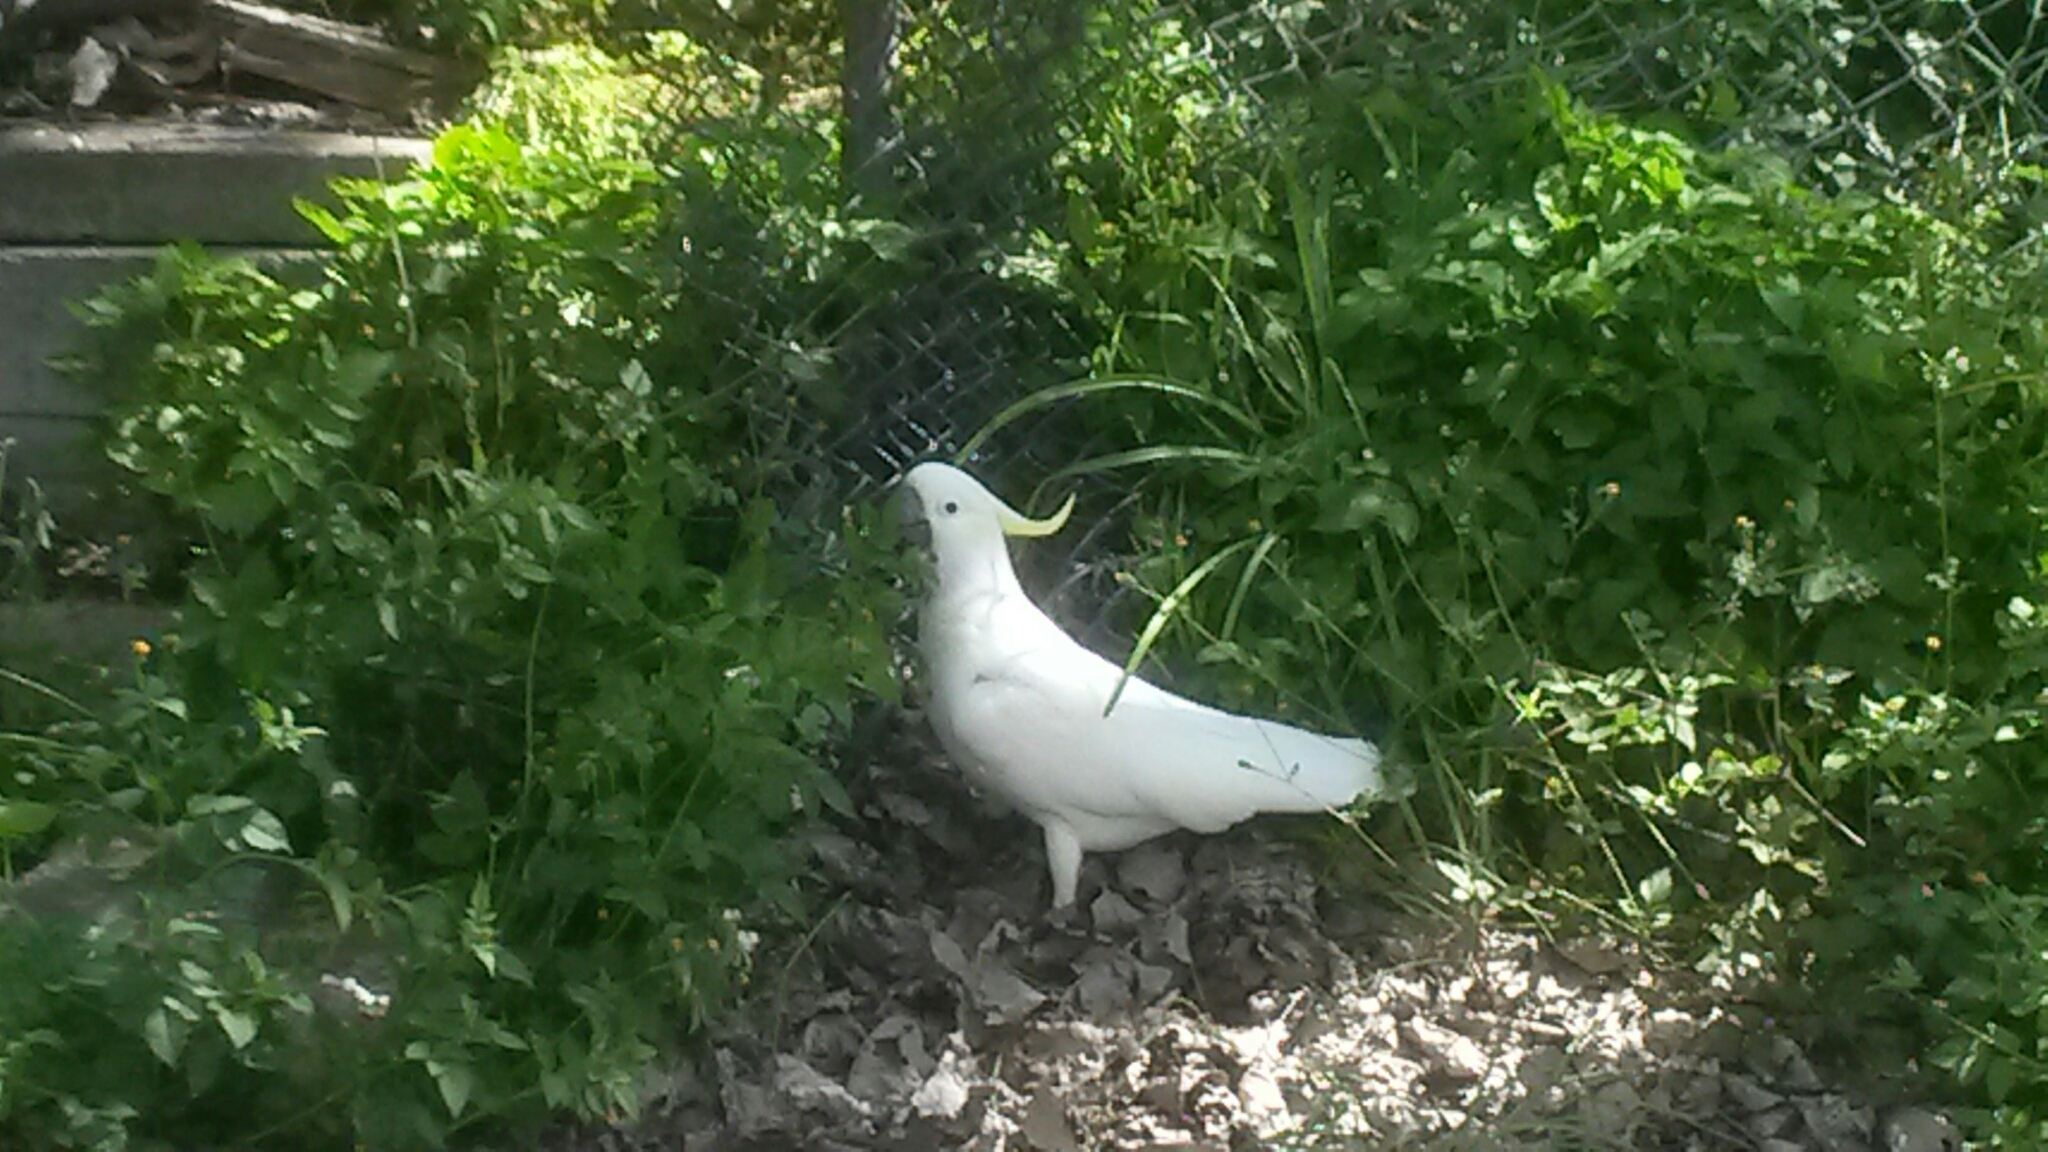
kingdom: Animalia
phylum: Chordata
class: Aves
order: Psittaciformes
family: Psittacidae
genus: Cacatua
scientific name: Cacatua galerita
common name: Sulphur-crested cockatoo
